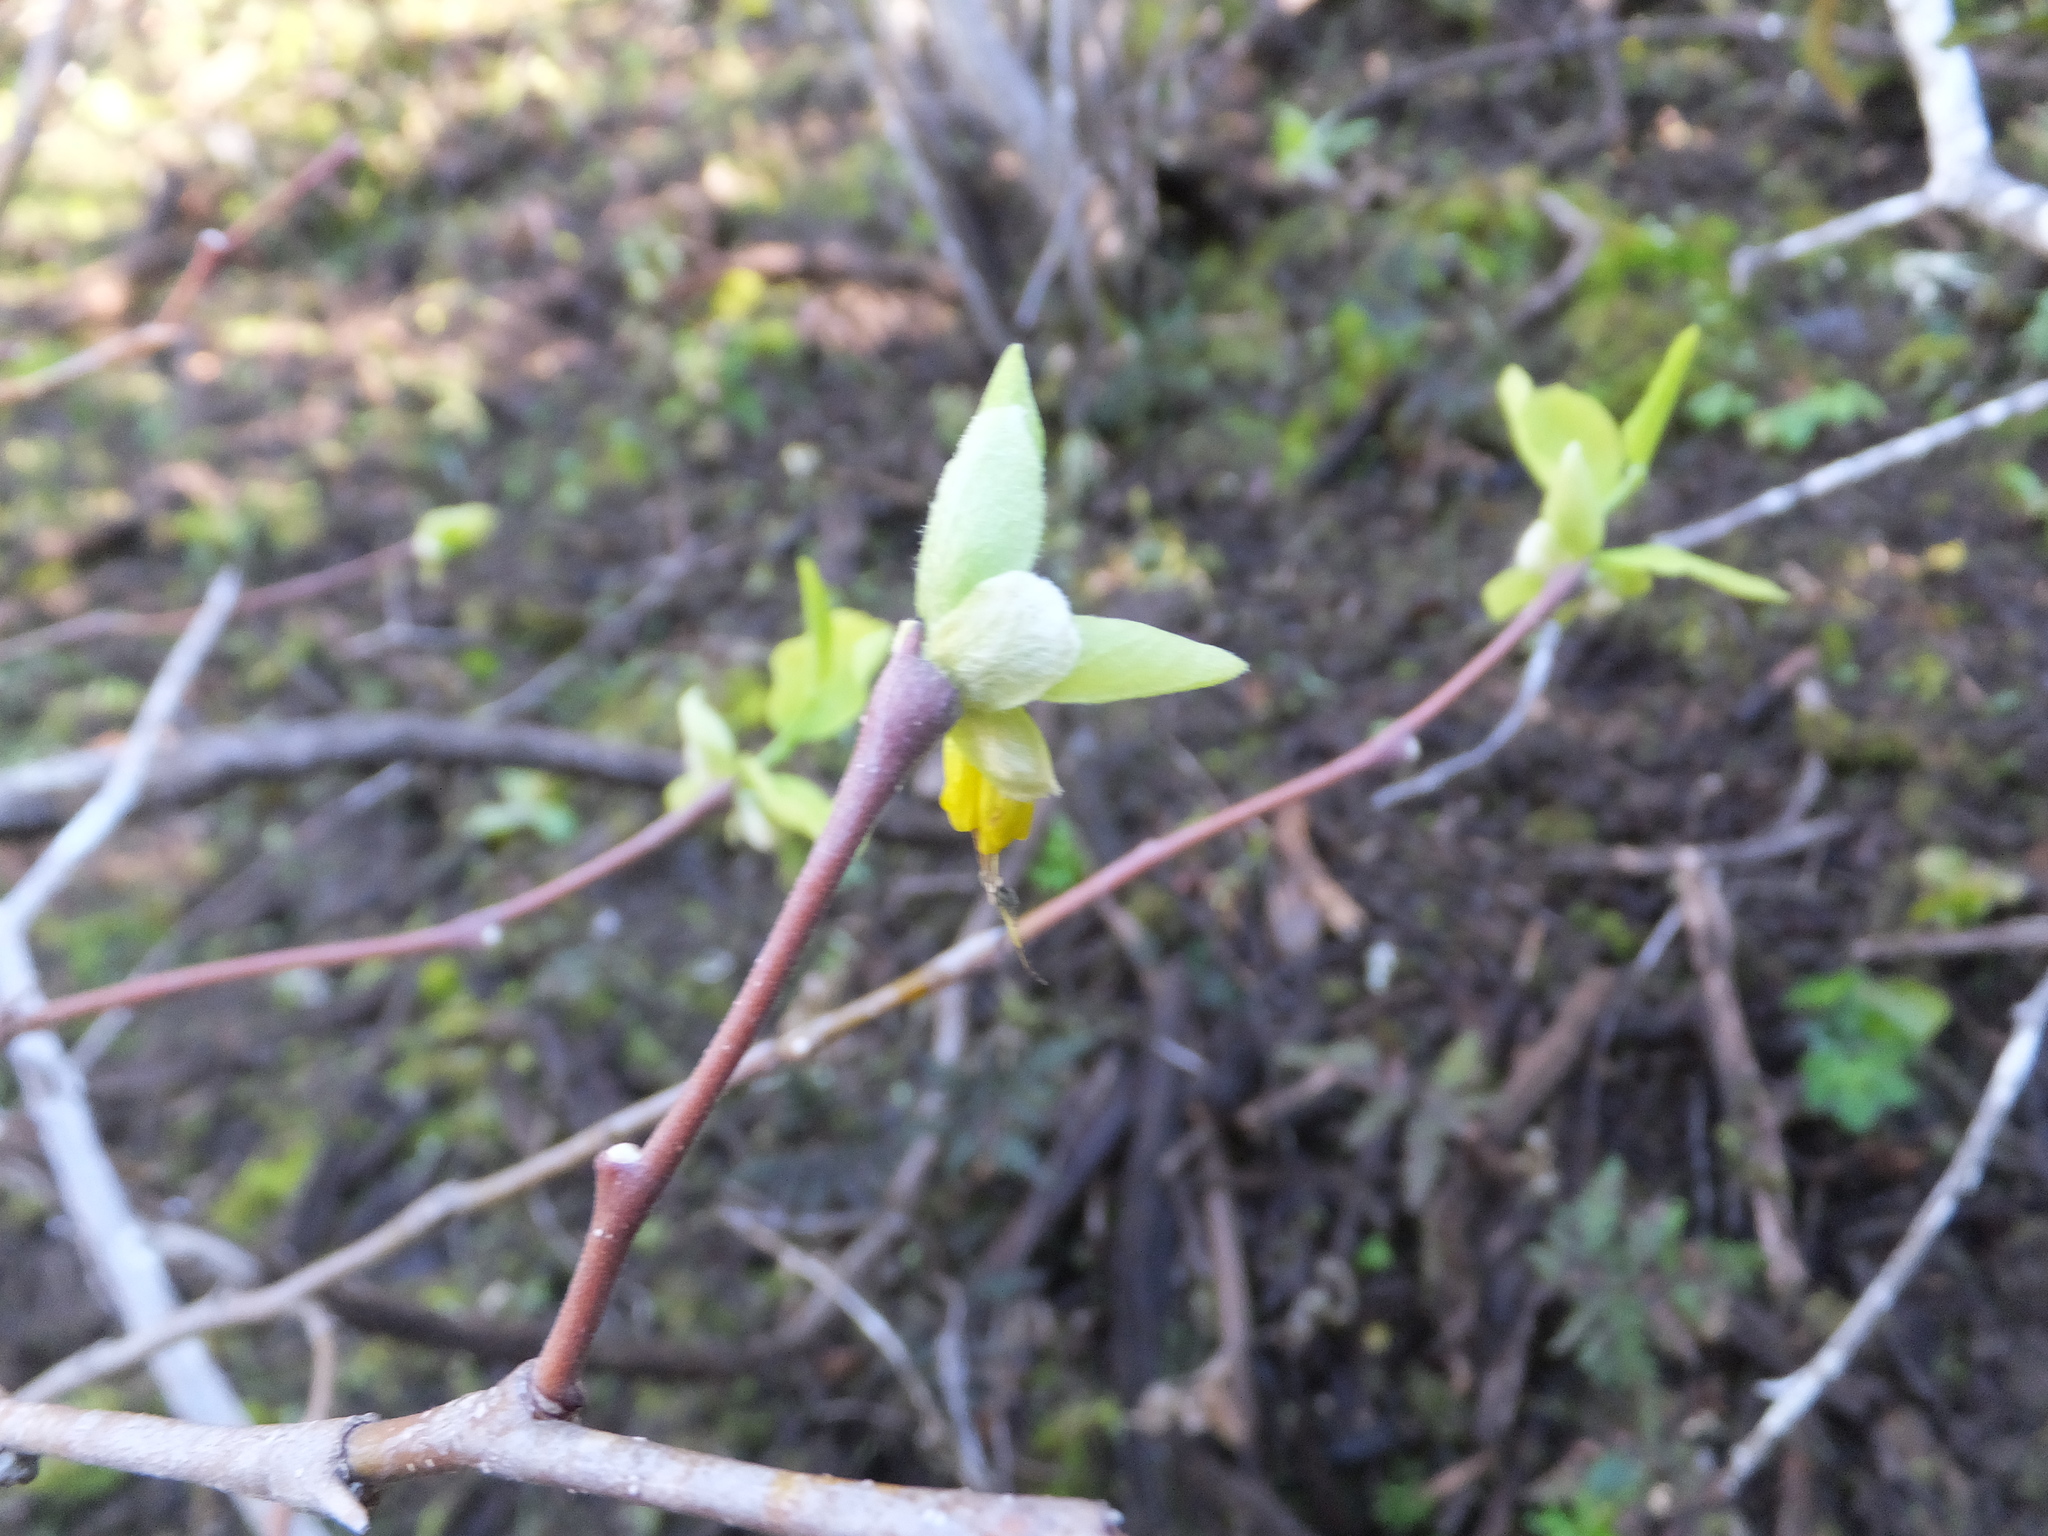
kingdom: Plantae
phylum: Tracheophyta
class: Magnoliopsida
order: Malvales
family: Thymelaeaceae
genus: Dirca
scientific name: Dirca occidentalis
